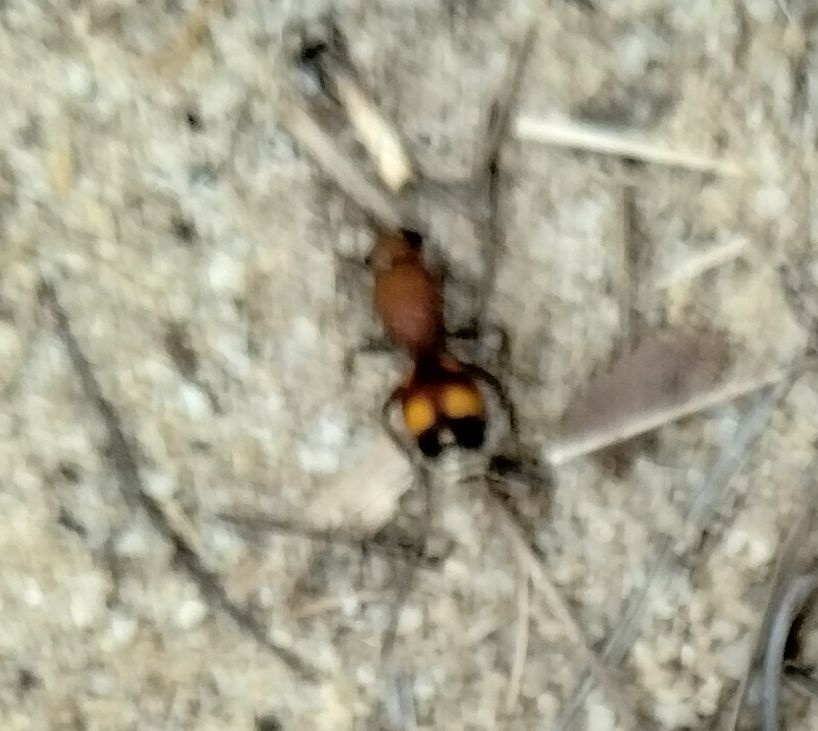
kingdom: Animalia
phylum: Arthropoda
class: Insecta
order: Hymenoptera
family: Mutillidae
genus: Dasymutilla
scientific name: Dasymutilla
